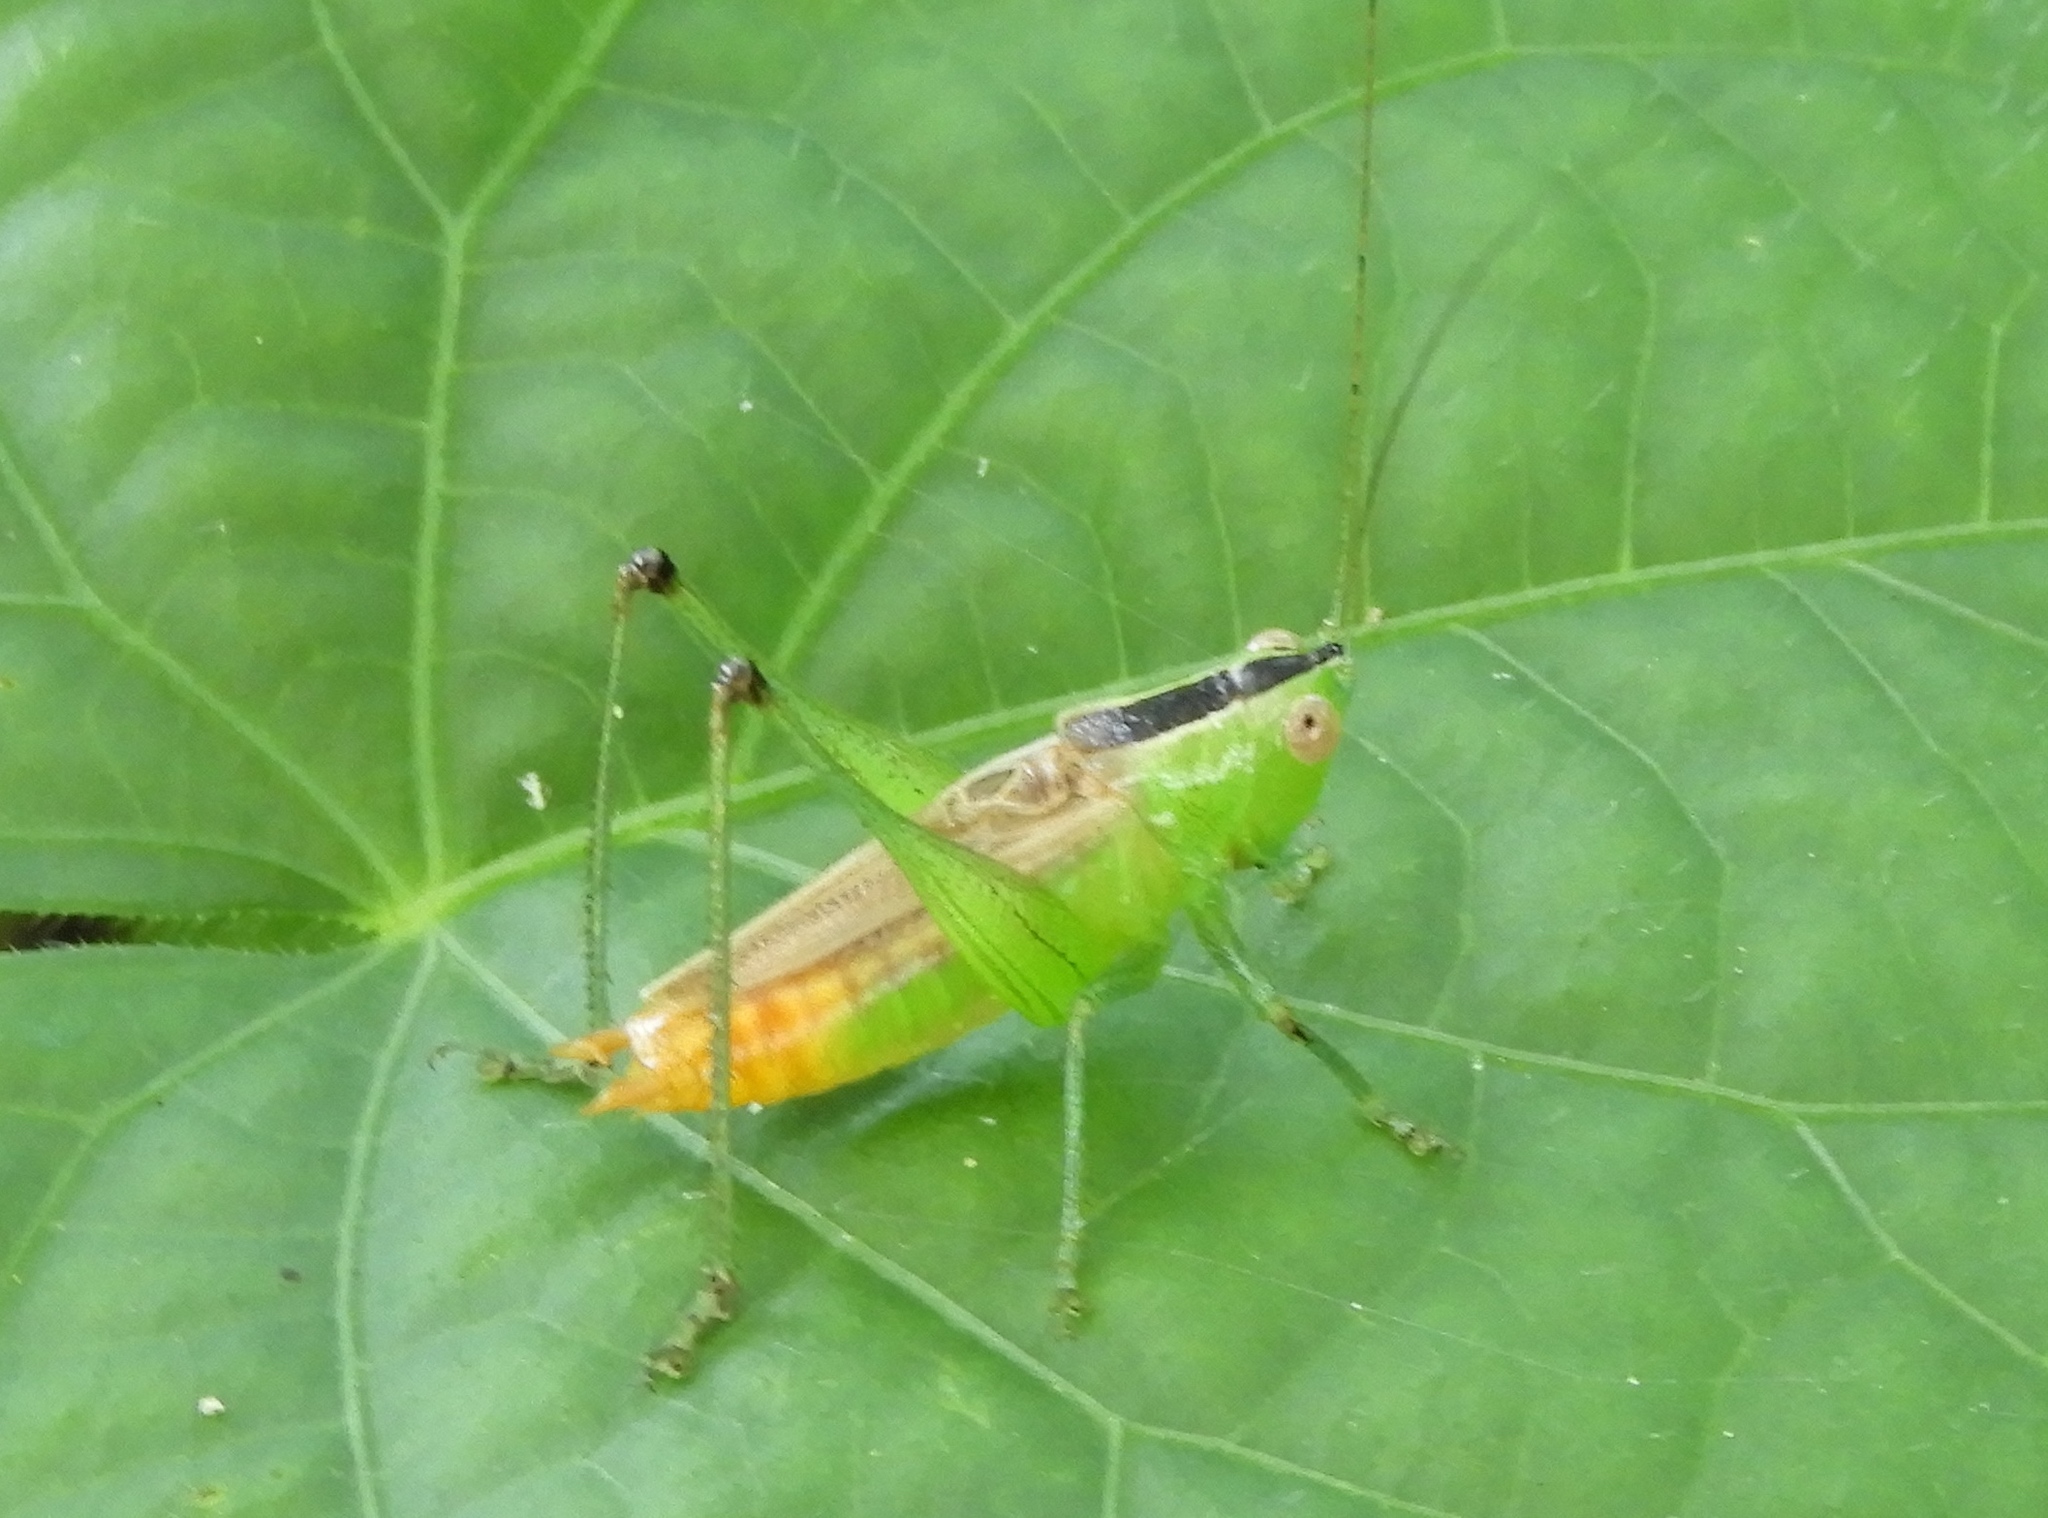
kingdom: Animalia
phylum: Arthropoda
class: Insecta
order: Orthoptera
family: Tettigoniidae
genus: Conocephalus
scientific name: Conocephalus
